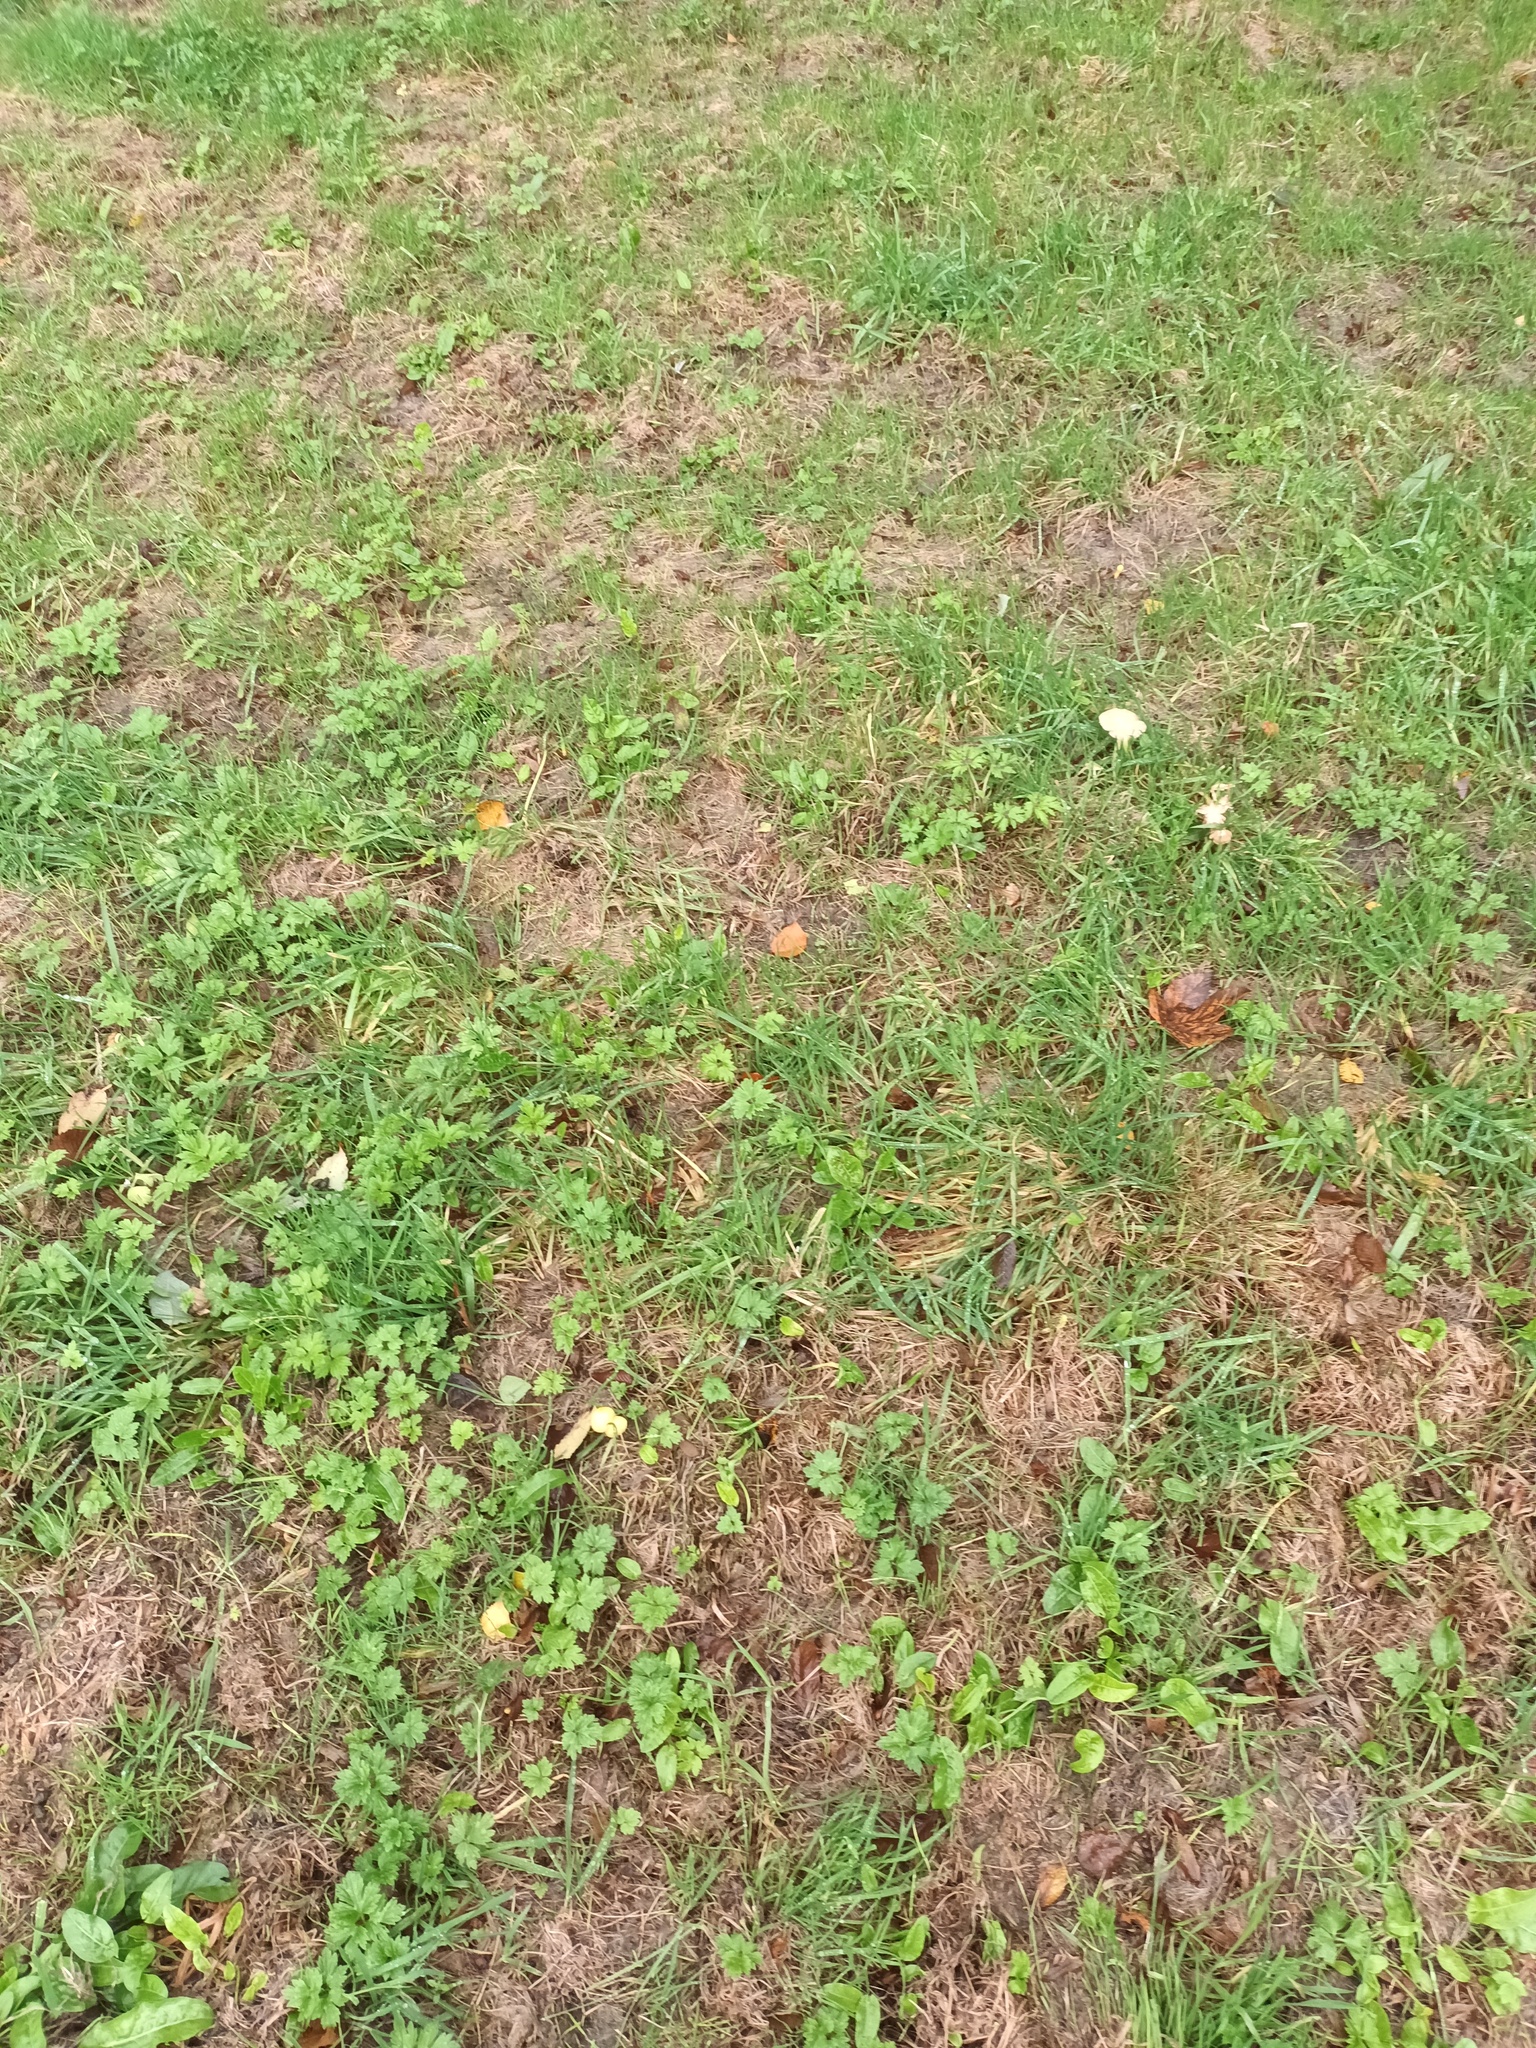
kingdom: Fungi
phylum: Basidiomycota
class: Agaricomycetes
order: Agaricales
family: Bolbitiaceae
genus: Bolbitius
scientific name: Bolbitius titubans
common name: Yellow fieldcap
